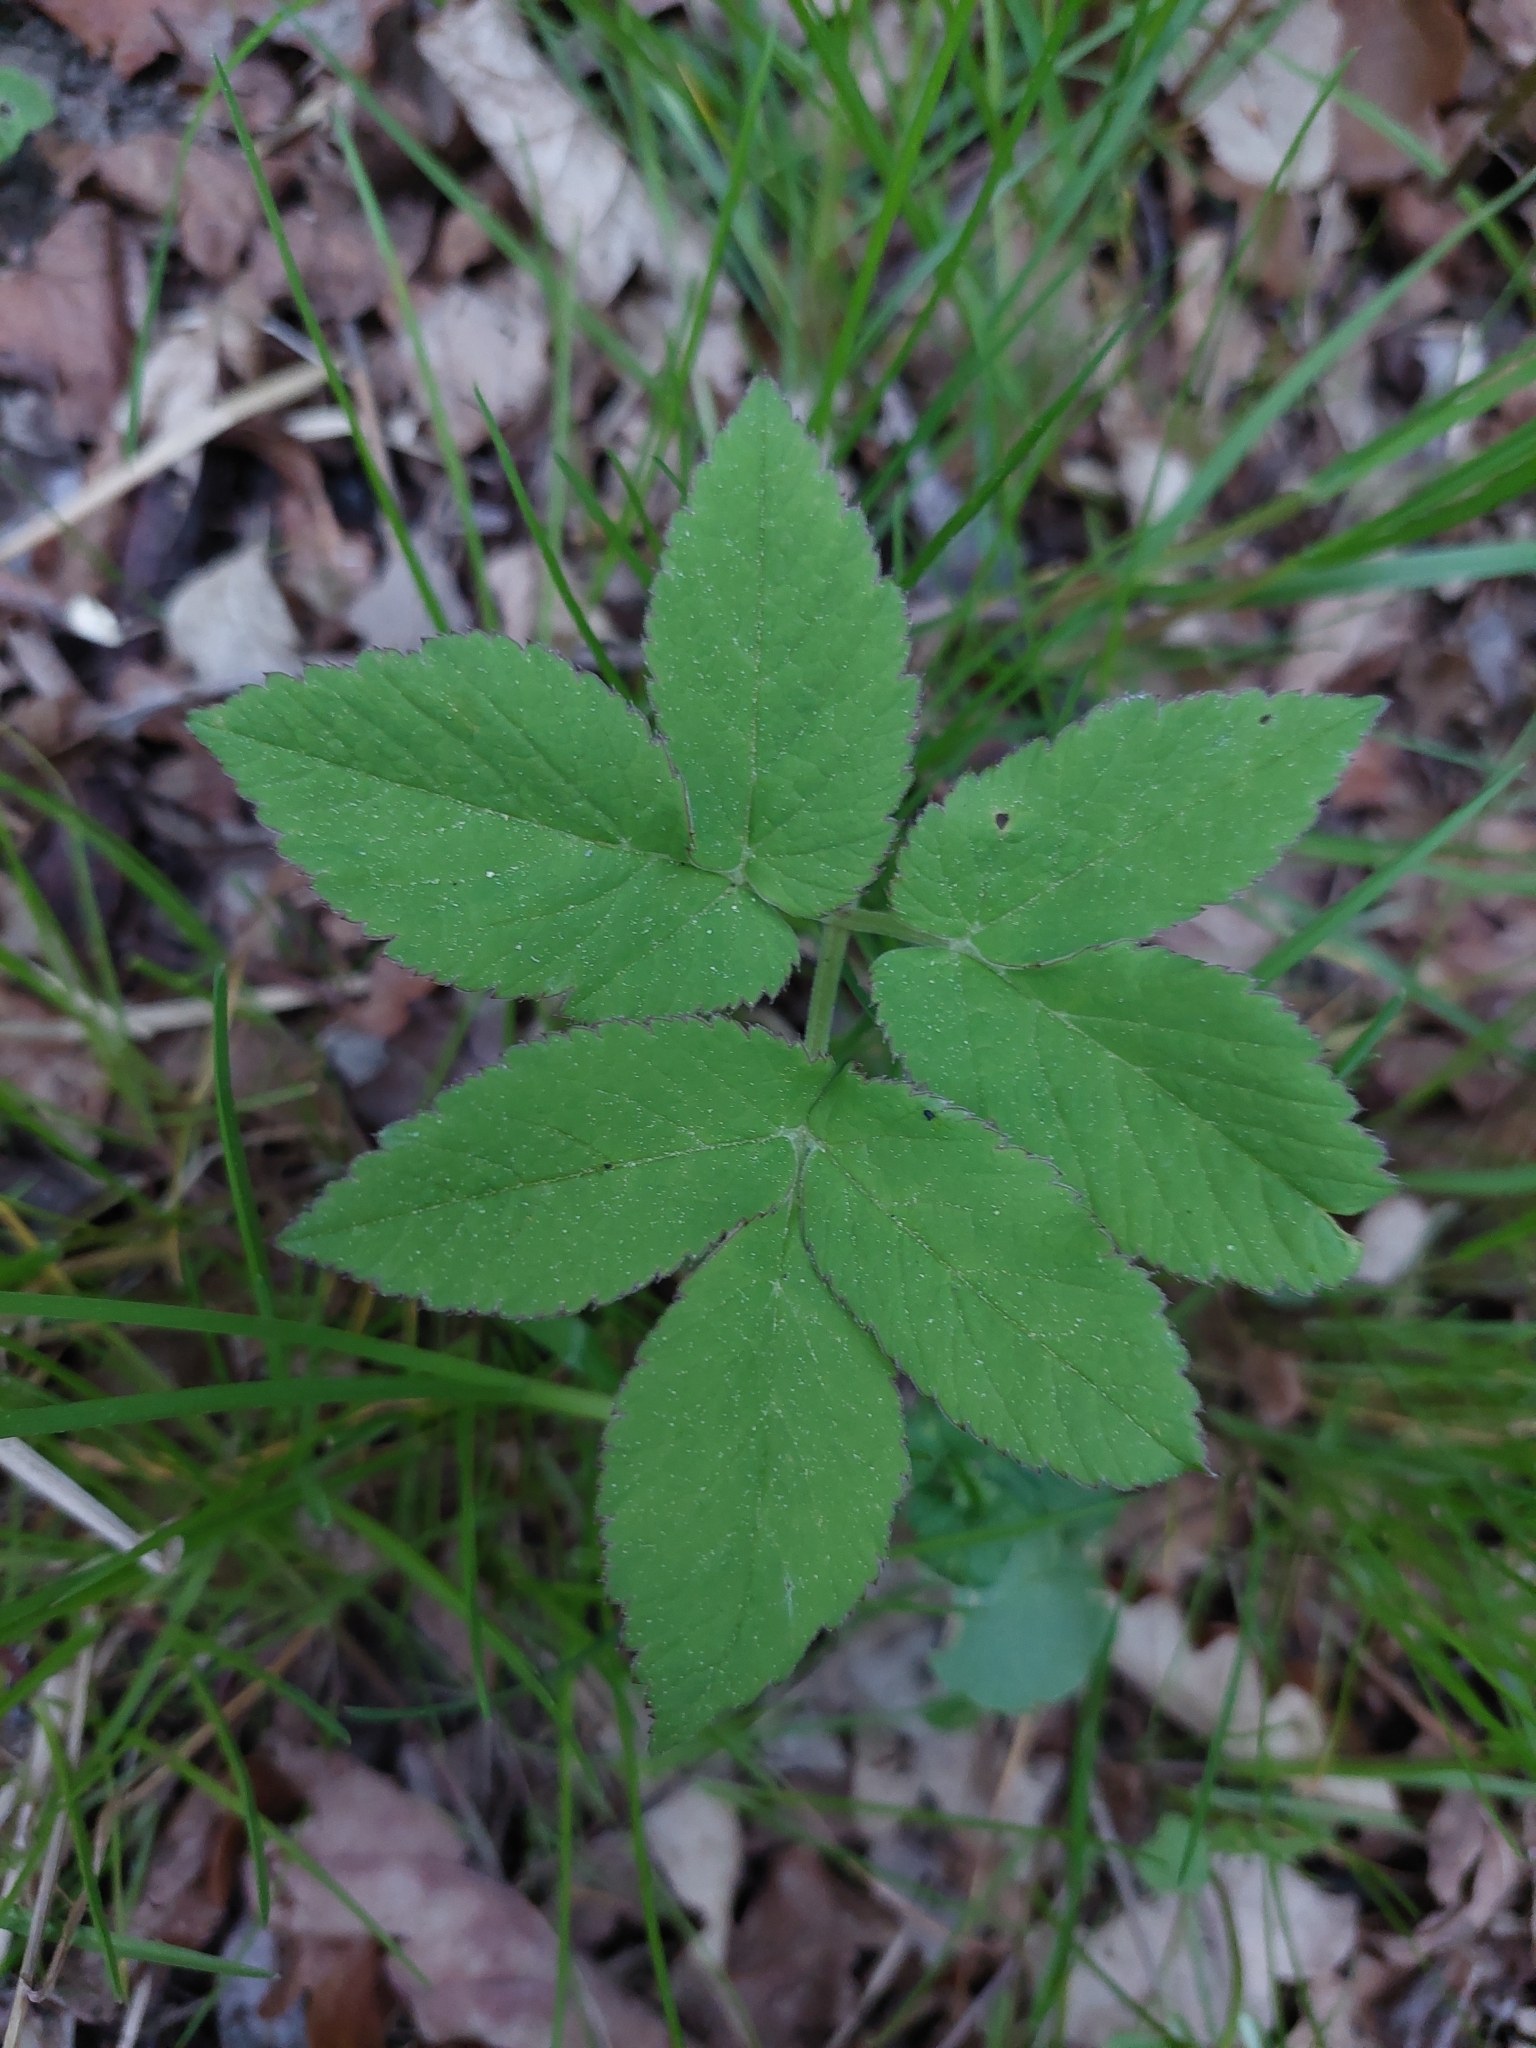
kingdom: Plantae
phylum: Tracheophyta
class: Magnoliopsida
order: Apiales
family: Apiaceae
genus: Aegopodium
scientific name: Aegopodium podagraria
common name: Ground-elder
